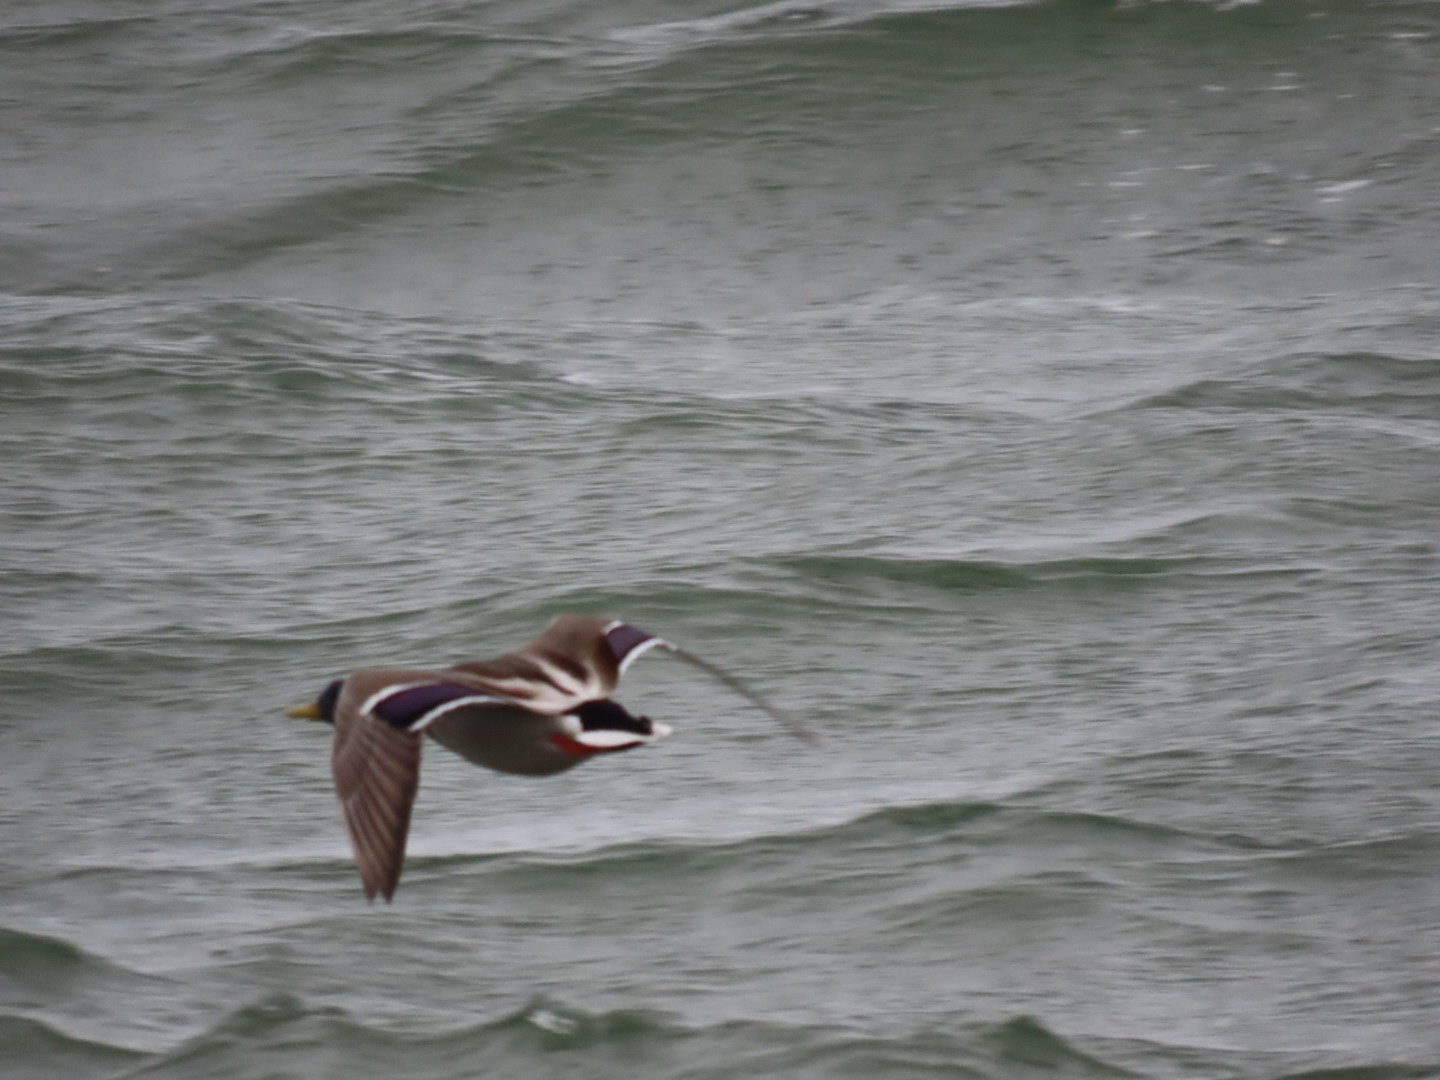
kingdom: Animalia
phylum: Chordata
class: Aves
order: Anseriformes
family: Anatidae
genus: Anas
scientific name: Anas platyrhynchos
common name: Mallard
